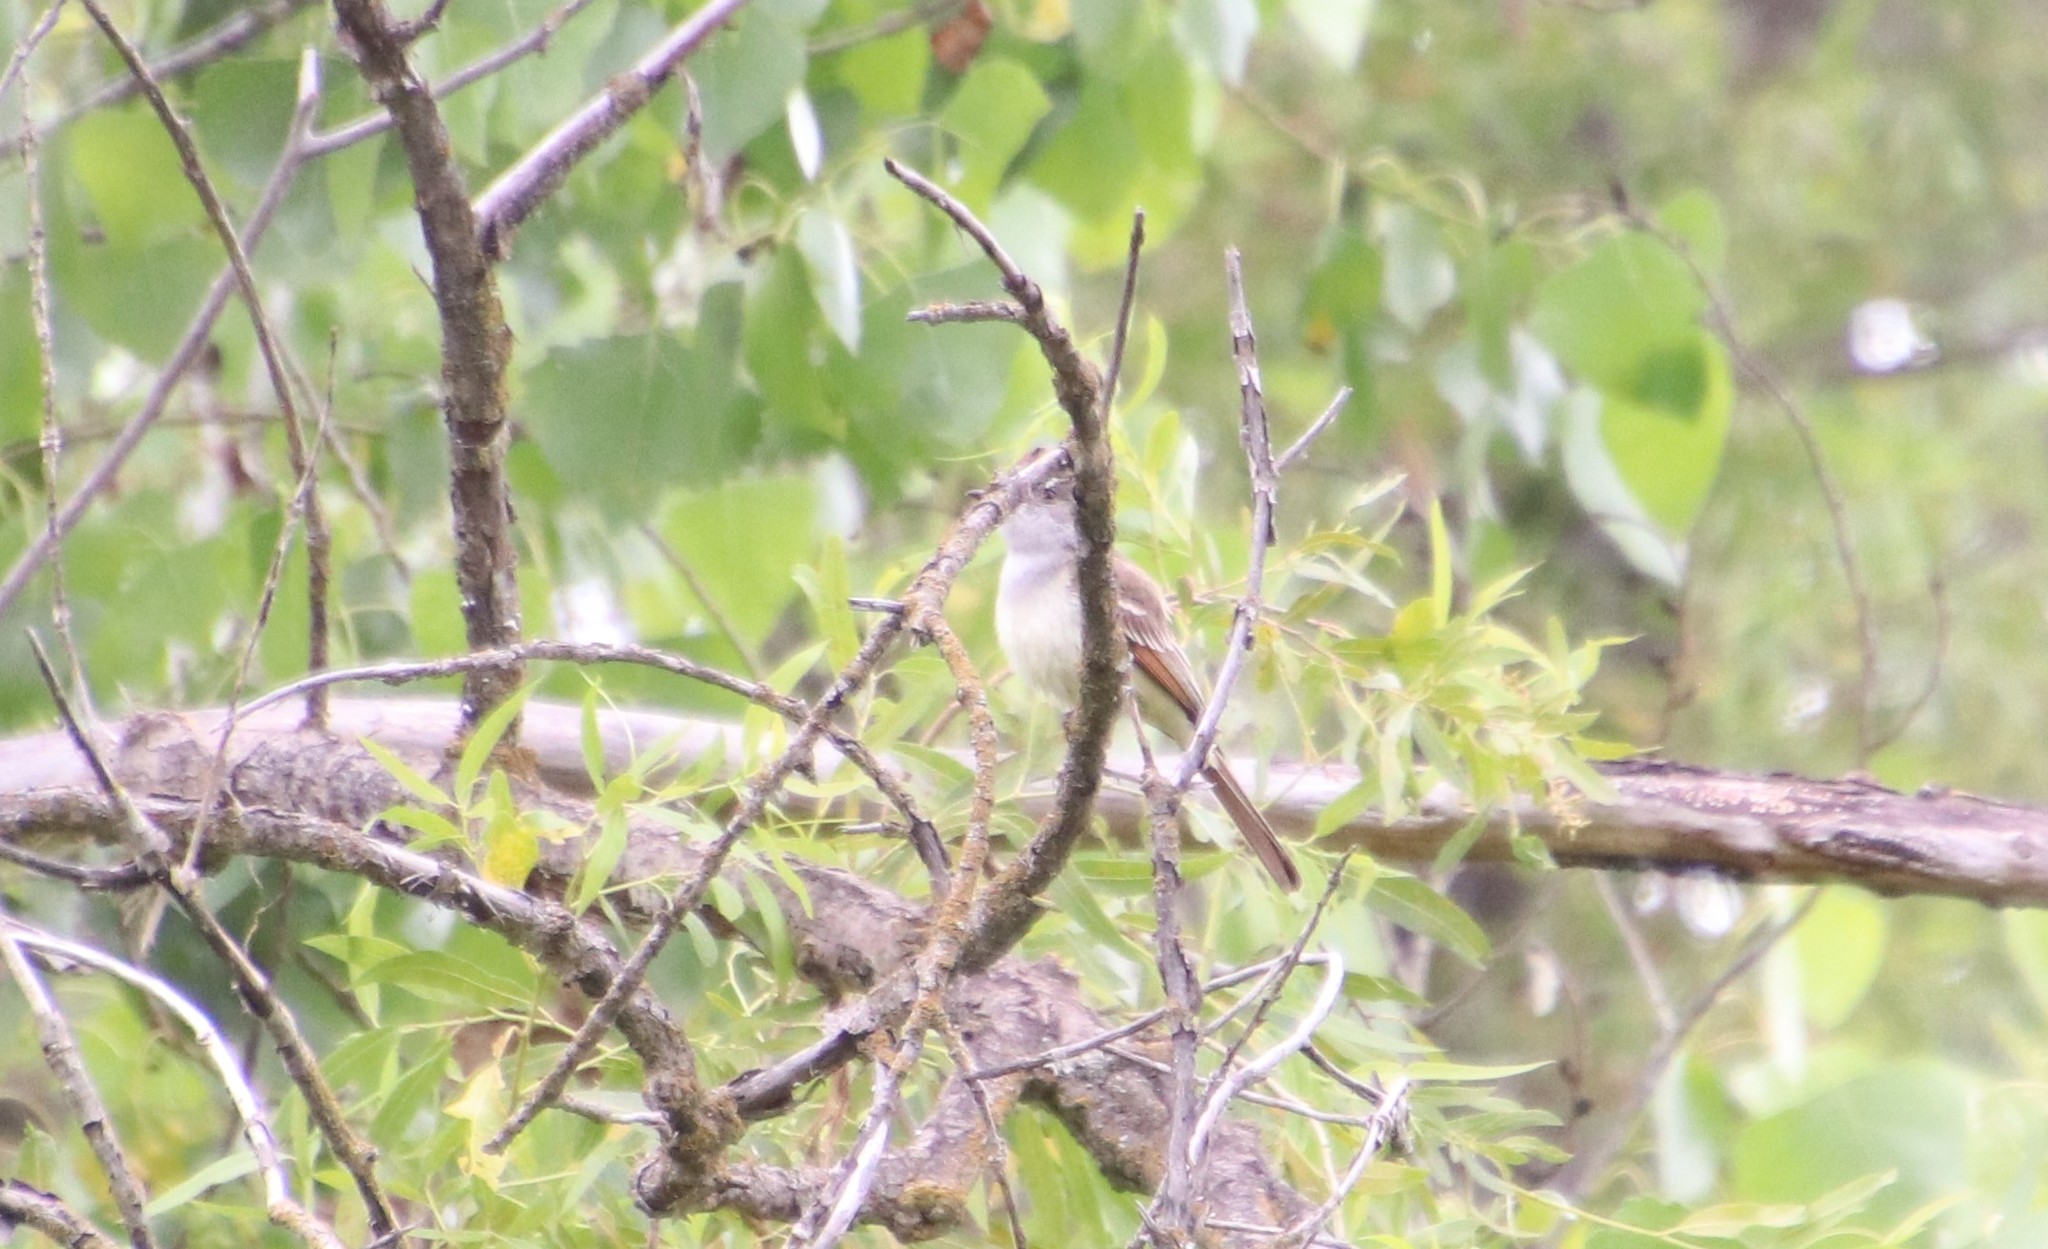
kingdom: Animalia
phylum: Chordata
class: Aves
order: Passeriformes
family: Tyrannidae
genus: Myiarchus
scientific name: Myiarchus cinerascens
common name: Ash-throated flycatcher
